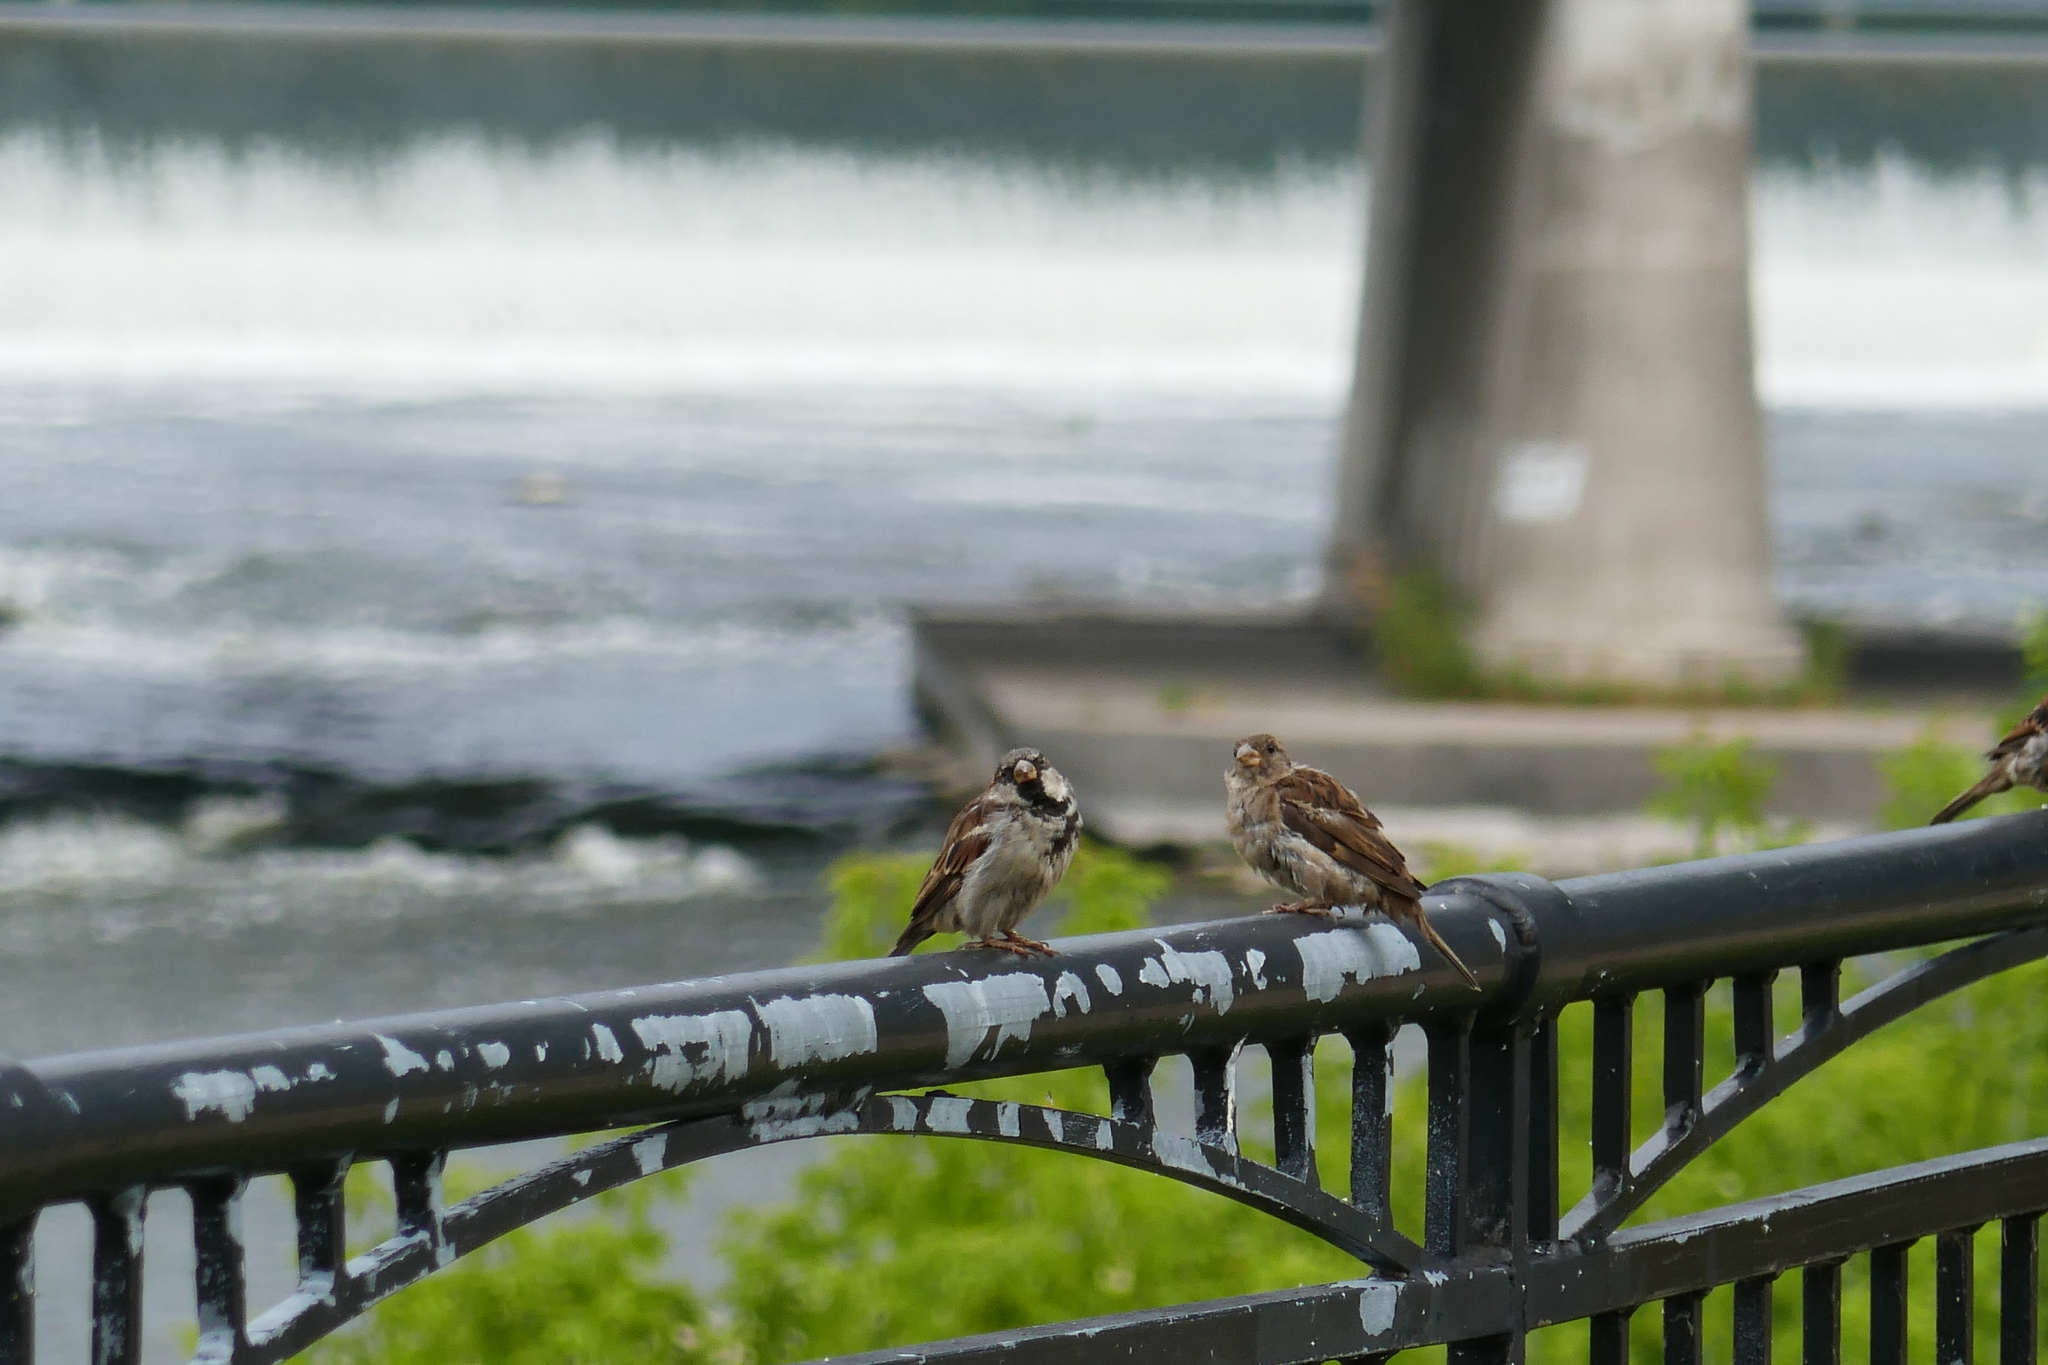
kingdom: Animalia
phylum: Chordata
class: Aves
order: Passeriformes
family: Passeridae
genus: Passer
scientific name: Passer domesticus
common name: House sparrow
